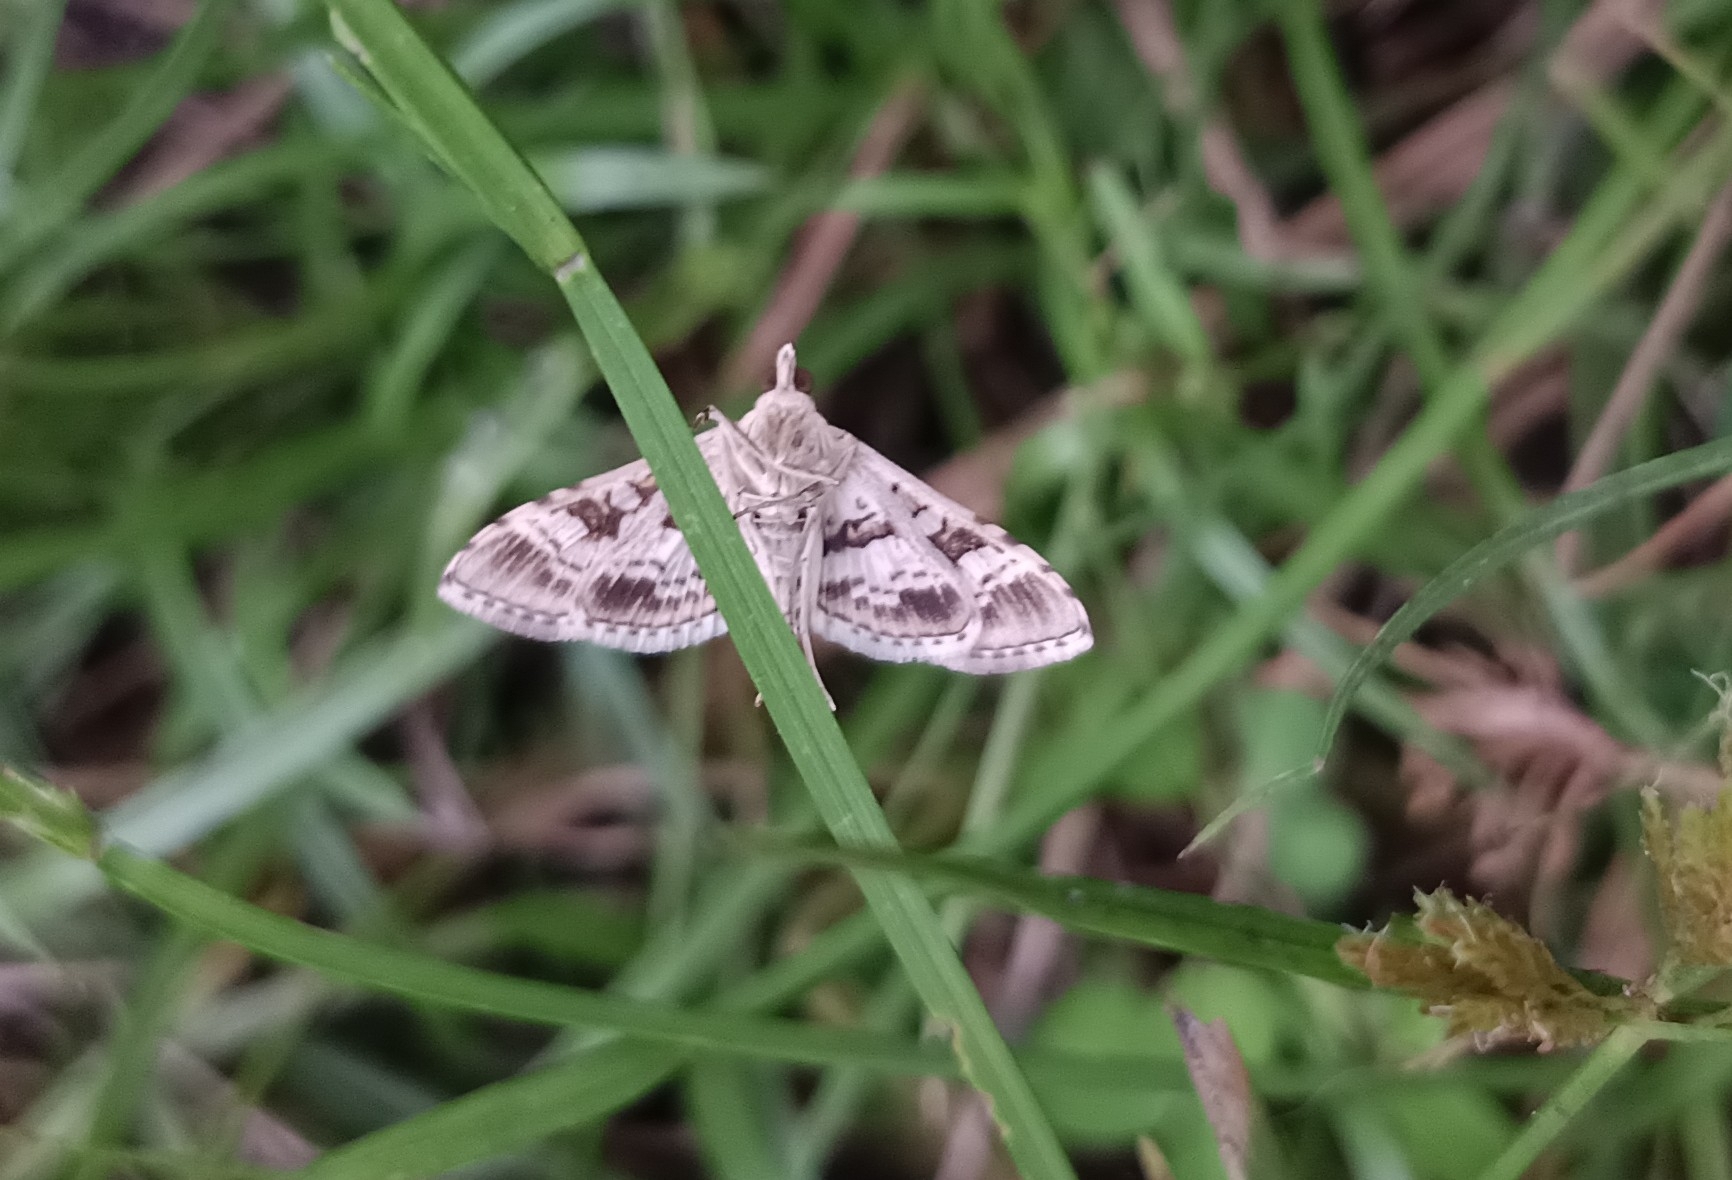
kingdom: Animalia
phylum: Arthropoda
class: Insecta
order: Lepidoptera
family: Crambidae
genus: Sameodes
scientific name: Sameodes cancellalis
